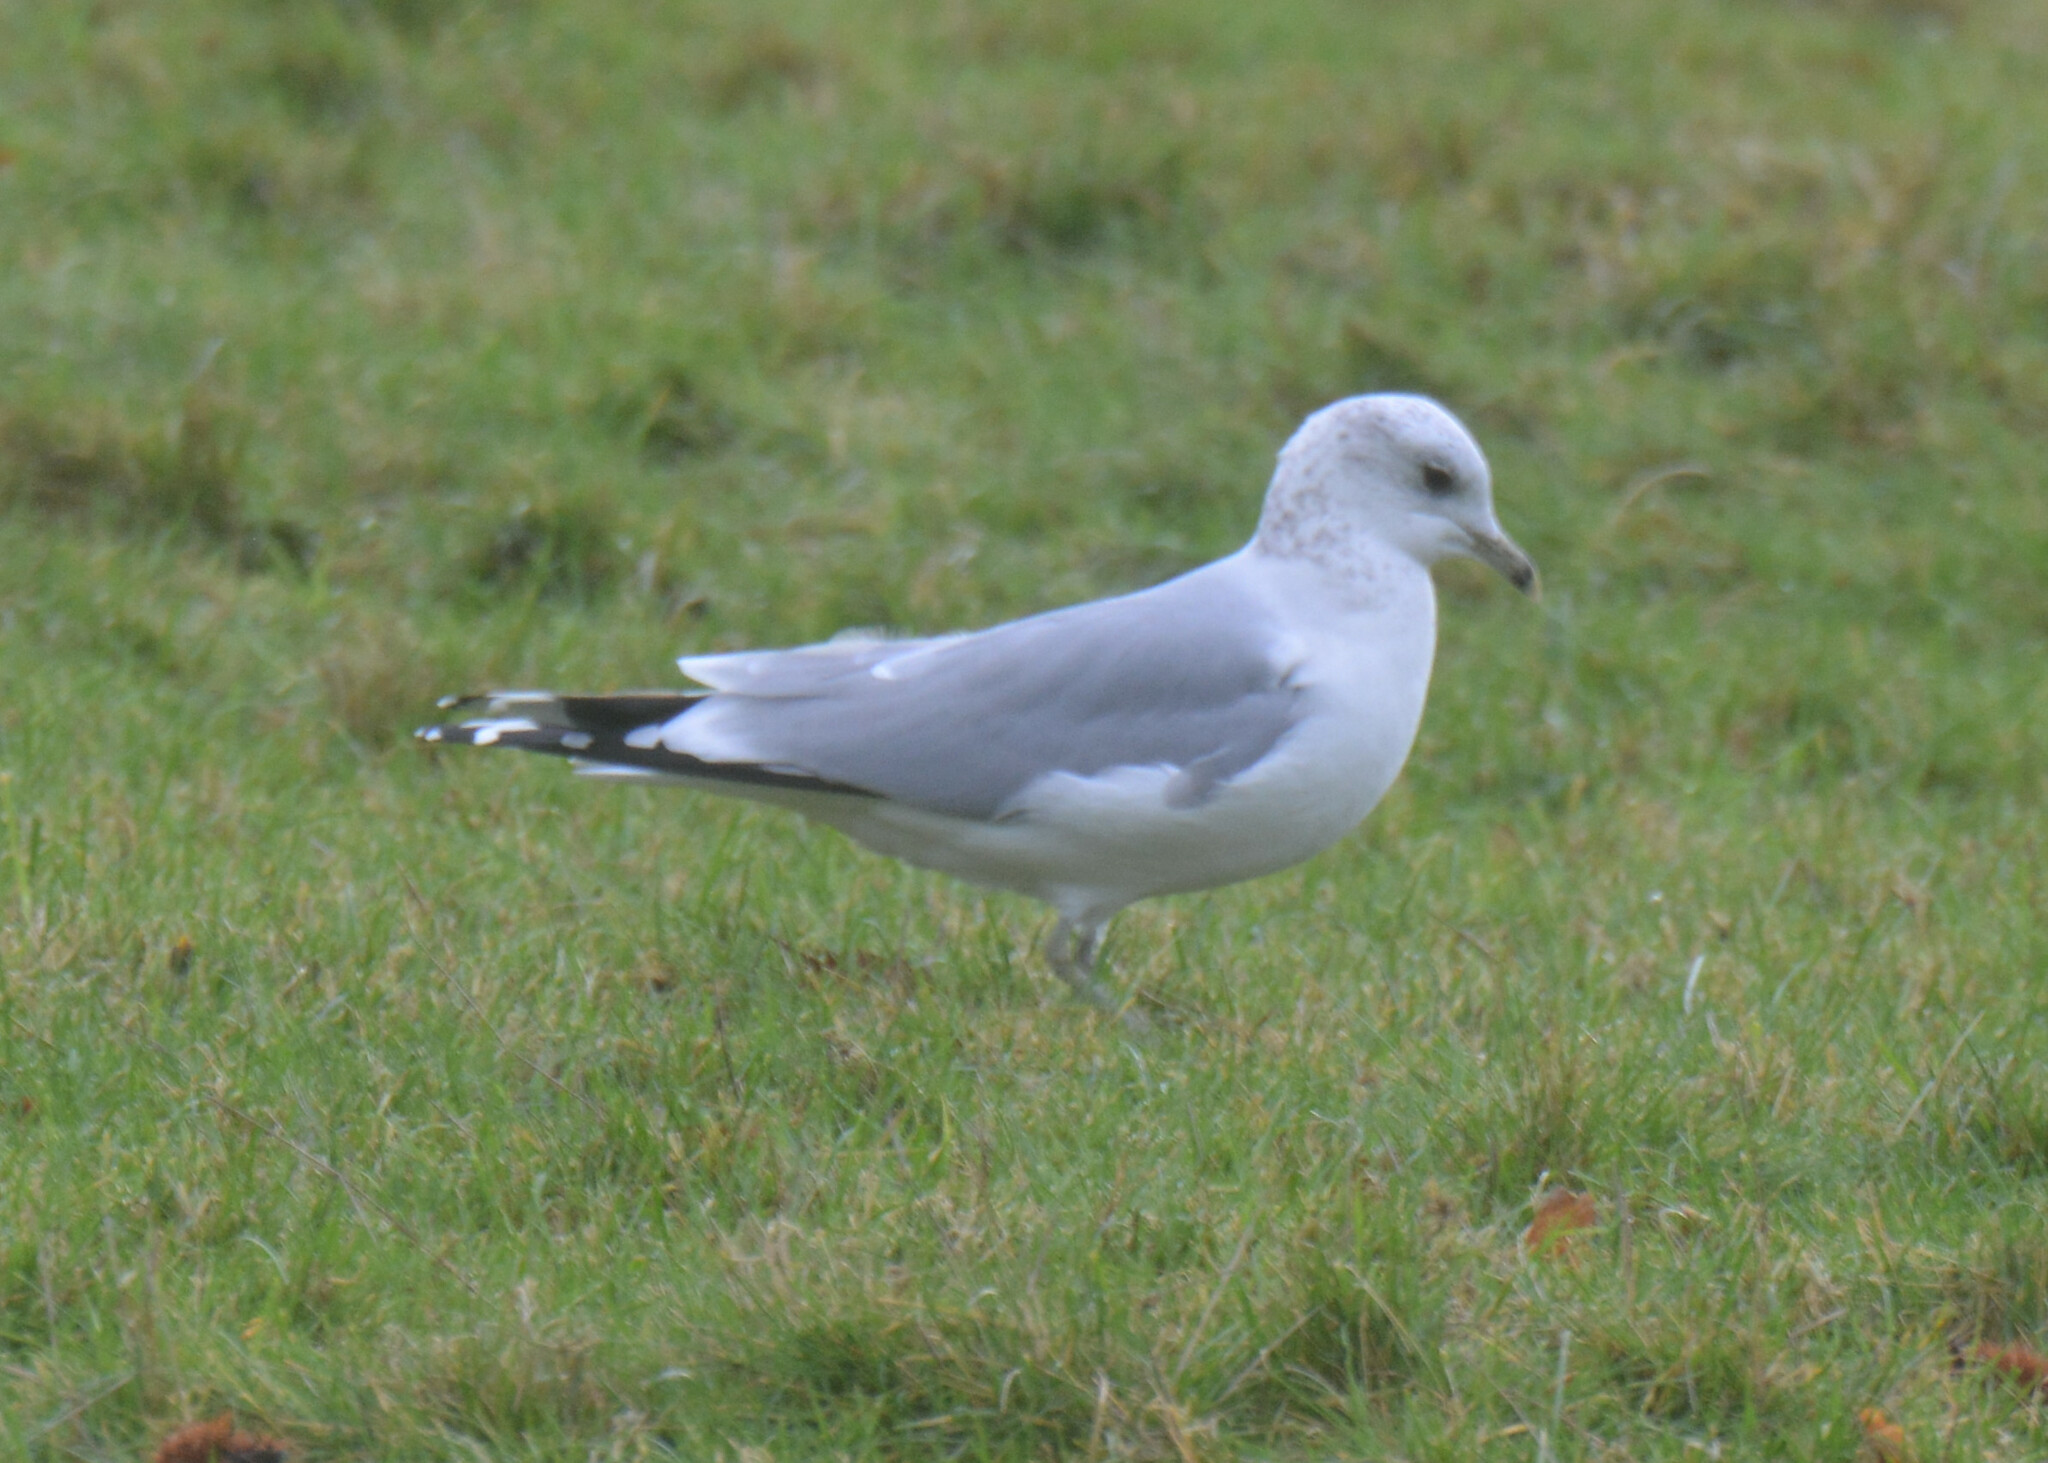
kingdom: Animalia
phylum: Chordata
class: Aves
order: Charadriiformes
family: Laridae
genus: Larus
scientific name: Larus canus
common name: Mew gull
